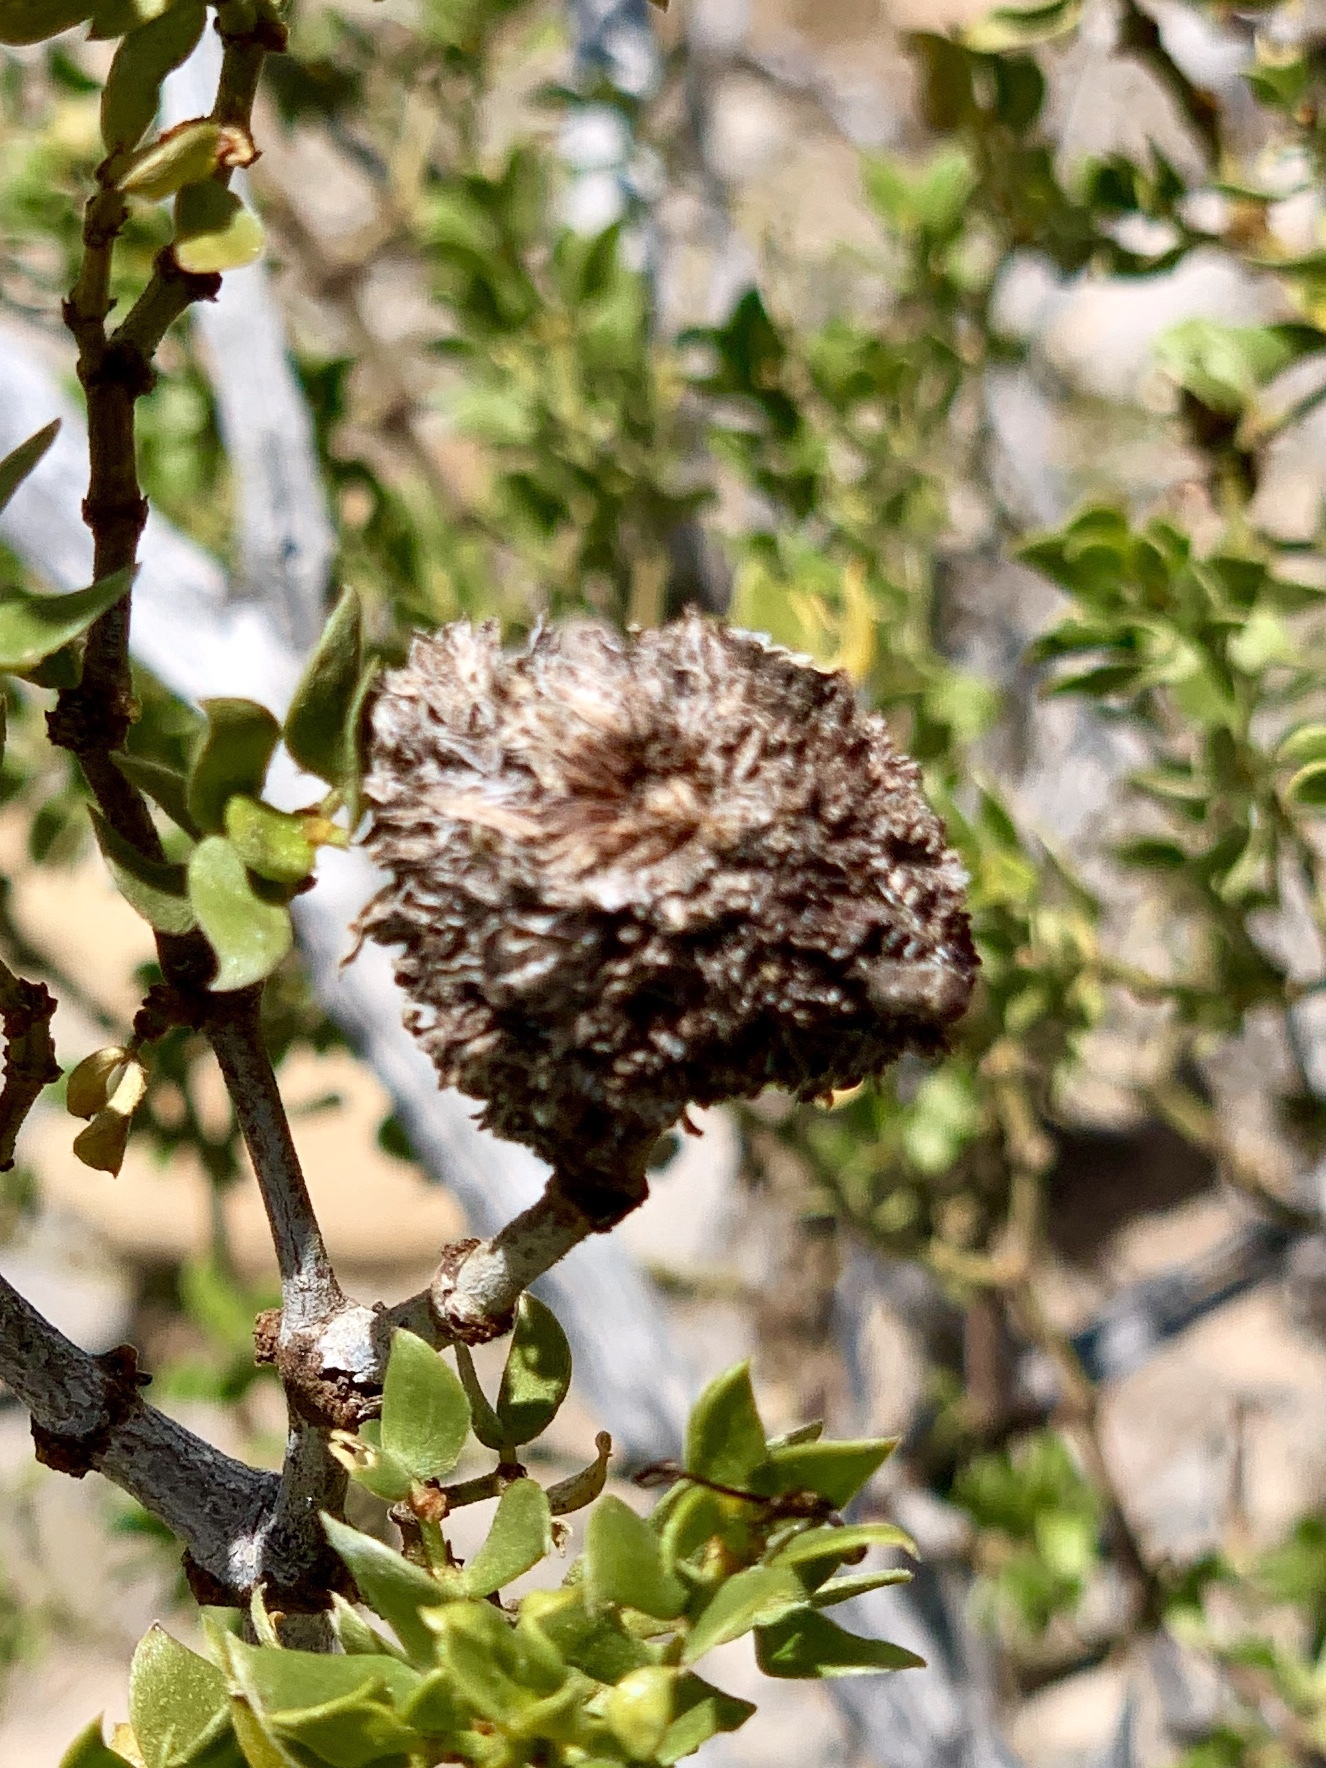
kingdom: Animalia
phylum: Arthropoda
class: Insecta
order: Diptera
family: Cecidomyiidae
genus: Asphondylia
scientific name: Asphondylia auripila
